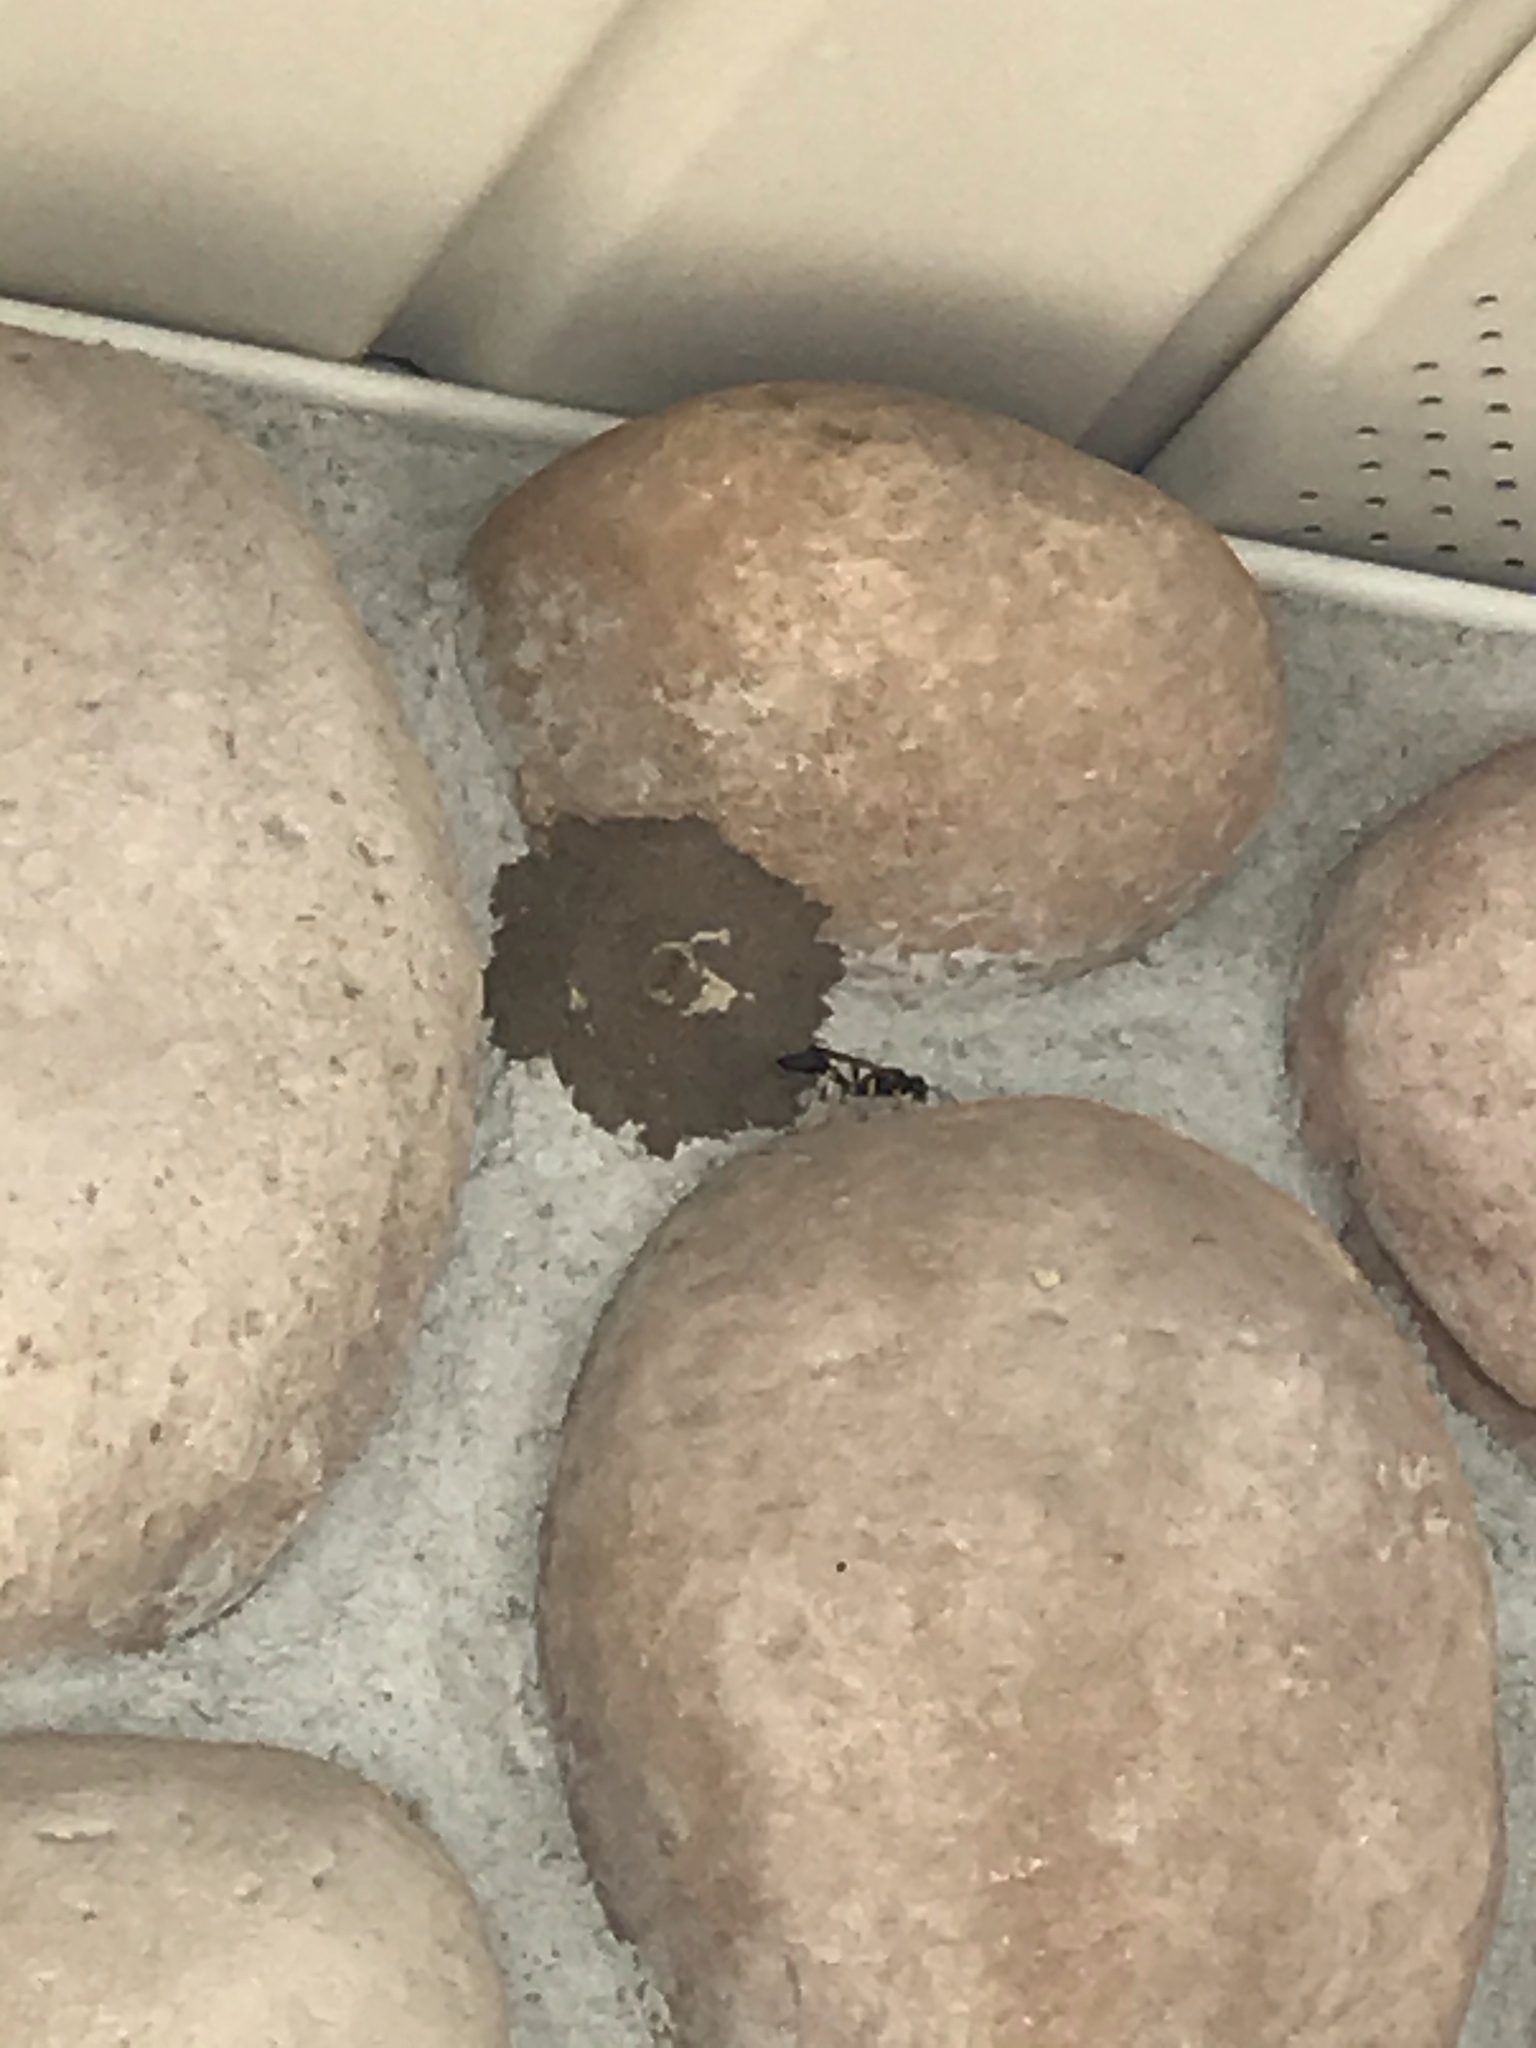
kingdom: Animalia
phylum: Arthropoda
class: Insecta
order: Hymenoptera
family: Sphecidae
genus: Sceliphron
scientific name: Sceliphron caementarium
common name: Mud dauber
